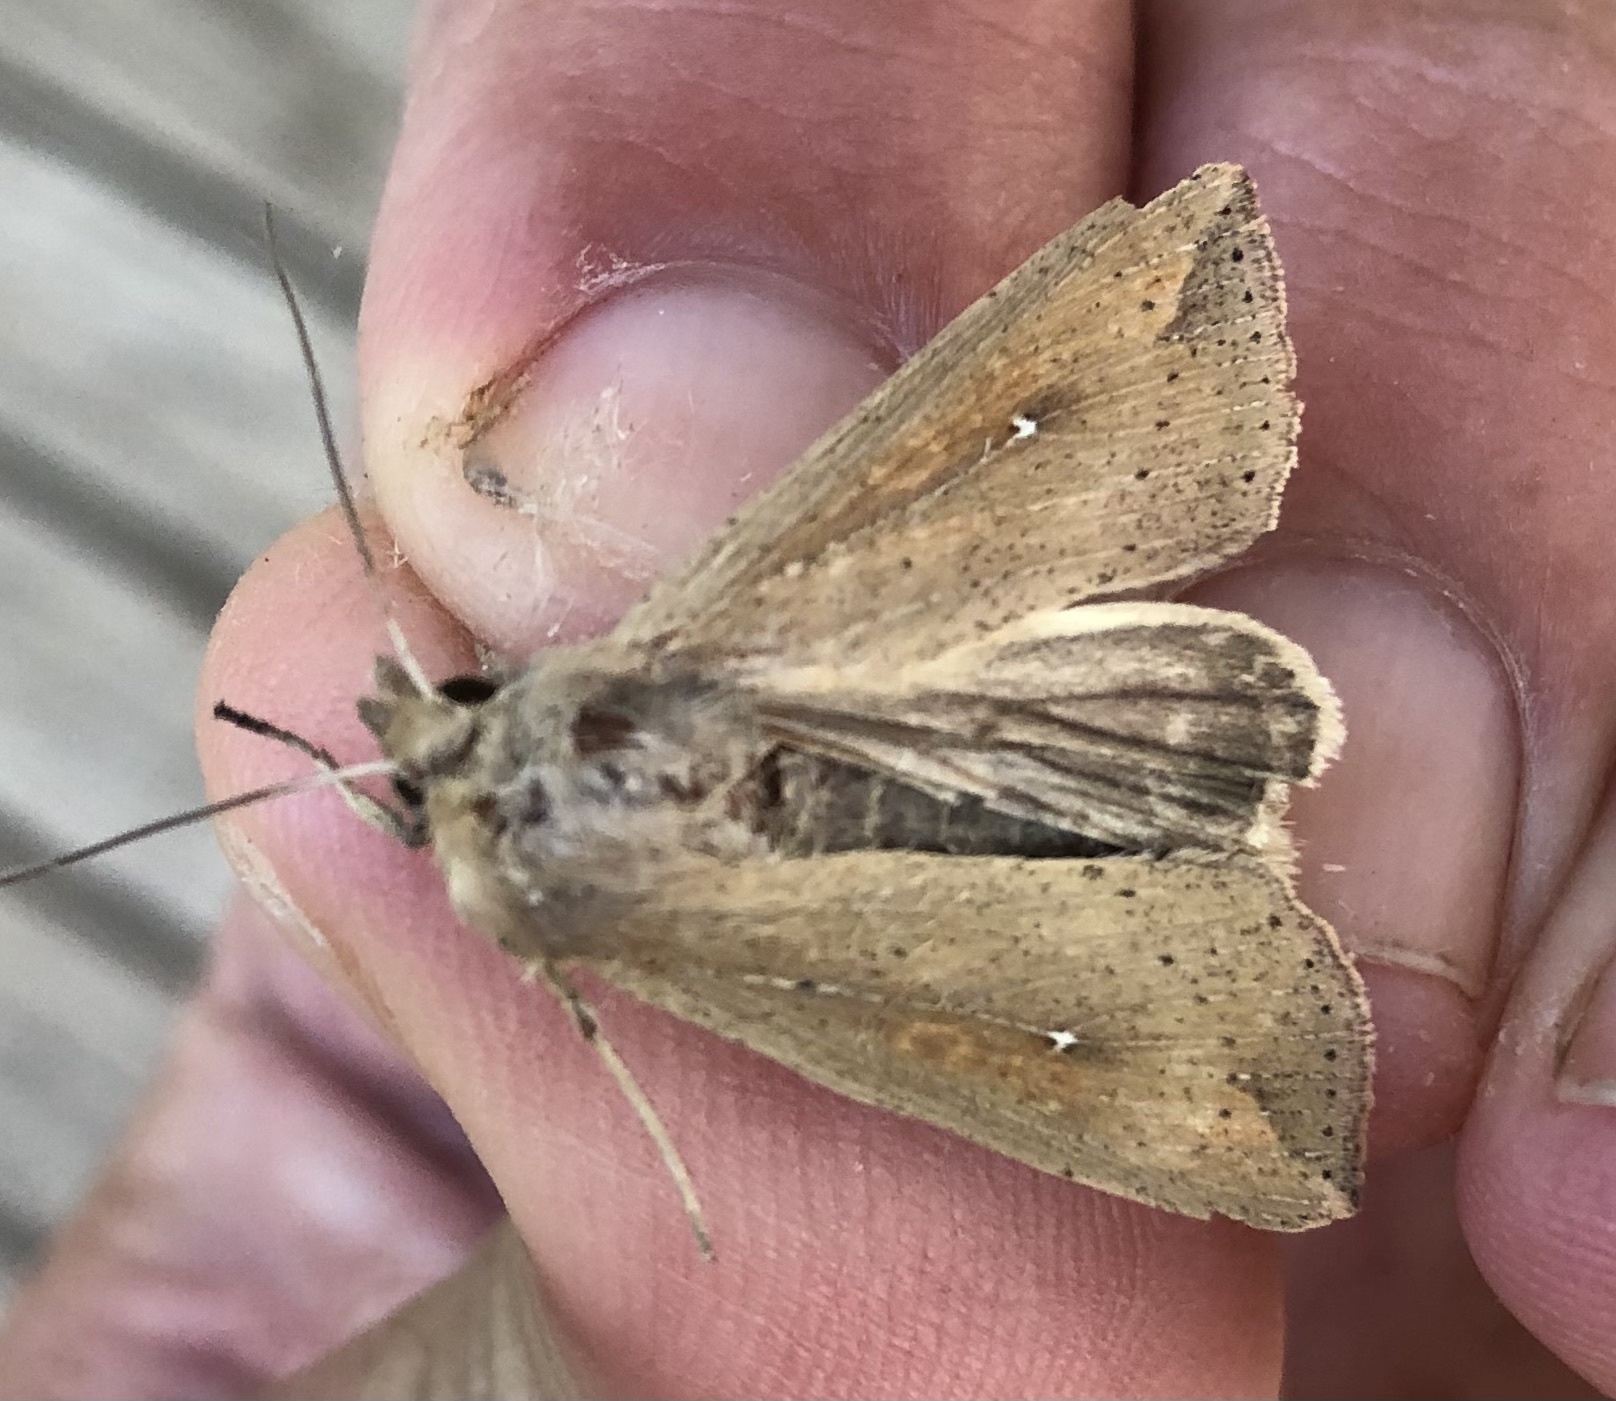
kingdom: Animalia
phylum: Arthropoda
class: Insecta
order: Lepidoptera
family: Noctuidae
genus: Mythimna
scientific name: Mythimna unipuncta
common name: White-speck
